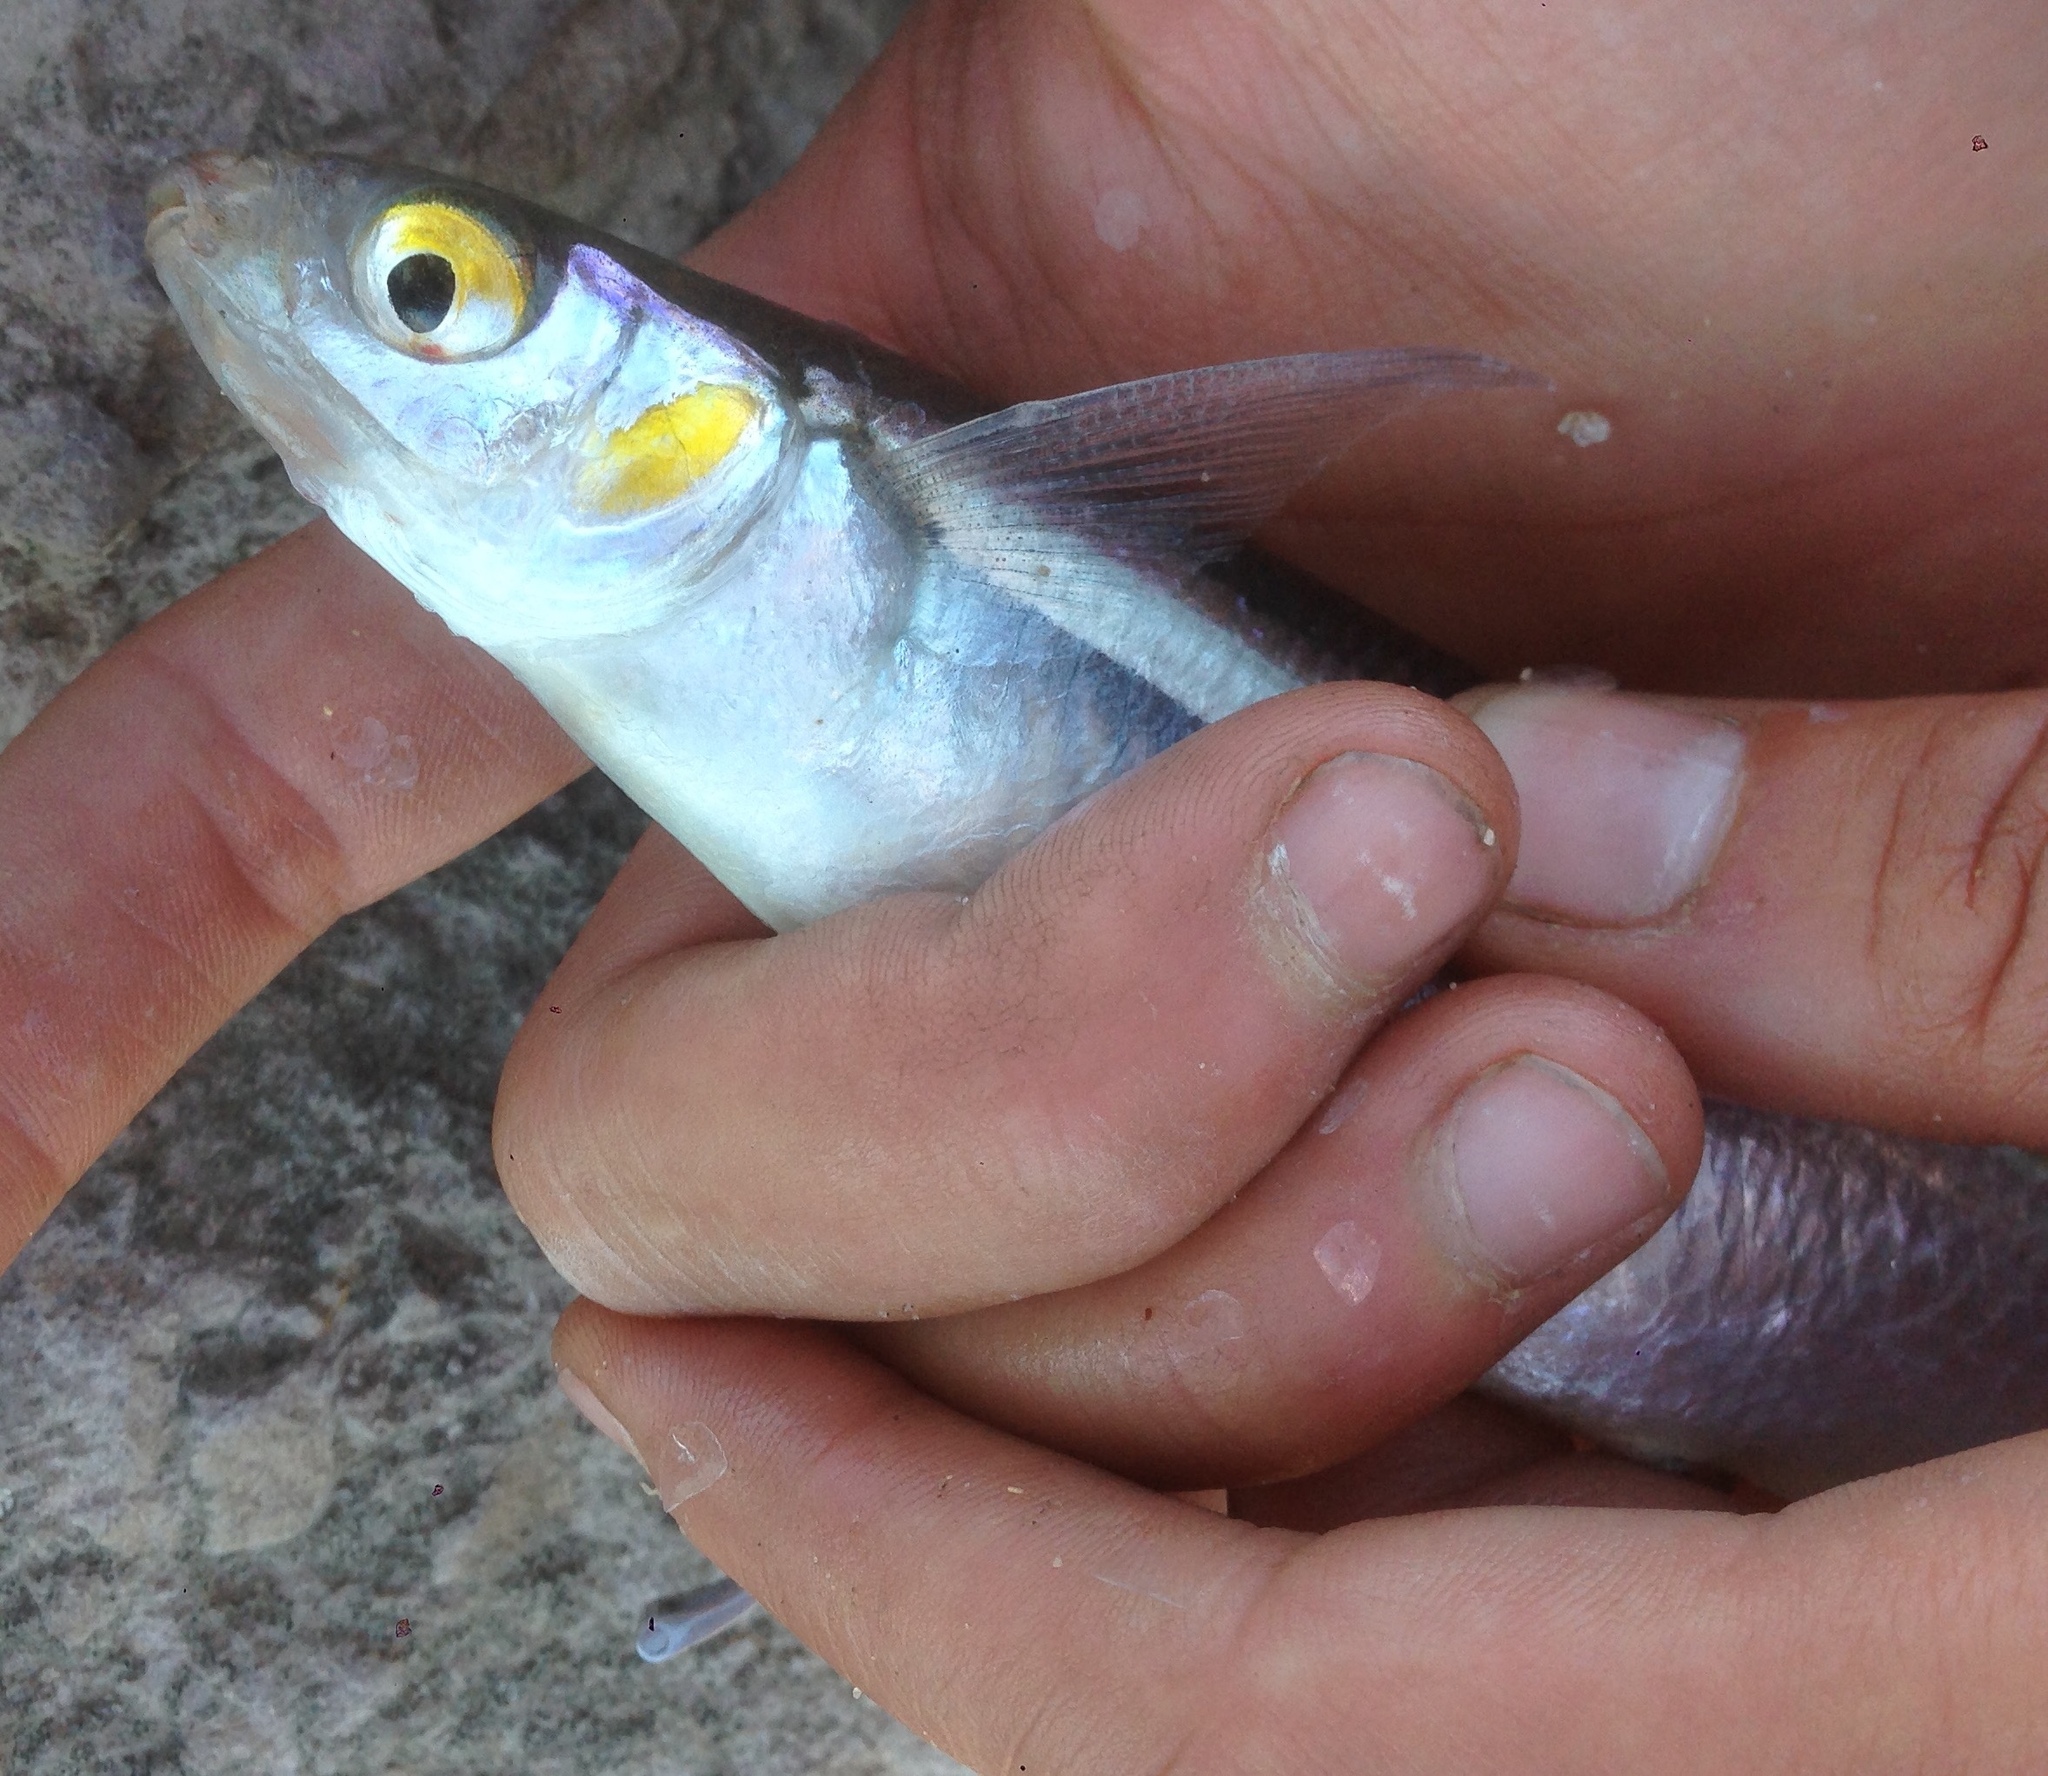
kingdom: Animalia
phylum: Chordata
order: Atheriniformes
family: Atherinopsidae
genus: Atherinops
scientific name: Atherinops affinis
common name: Topsmelt
